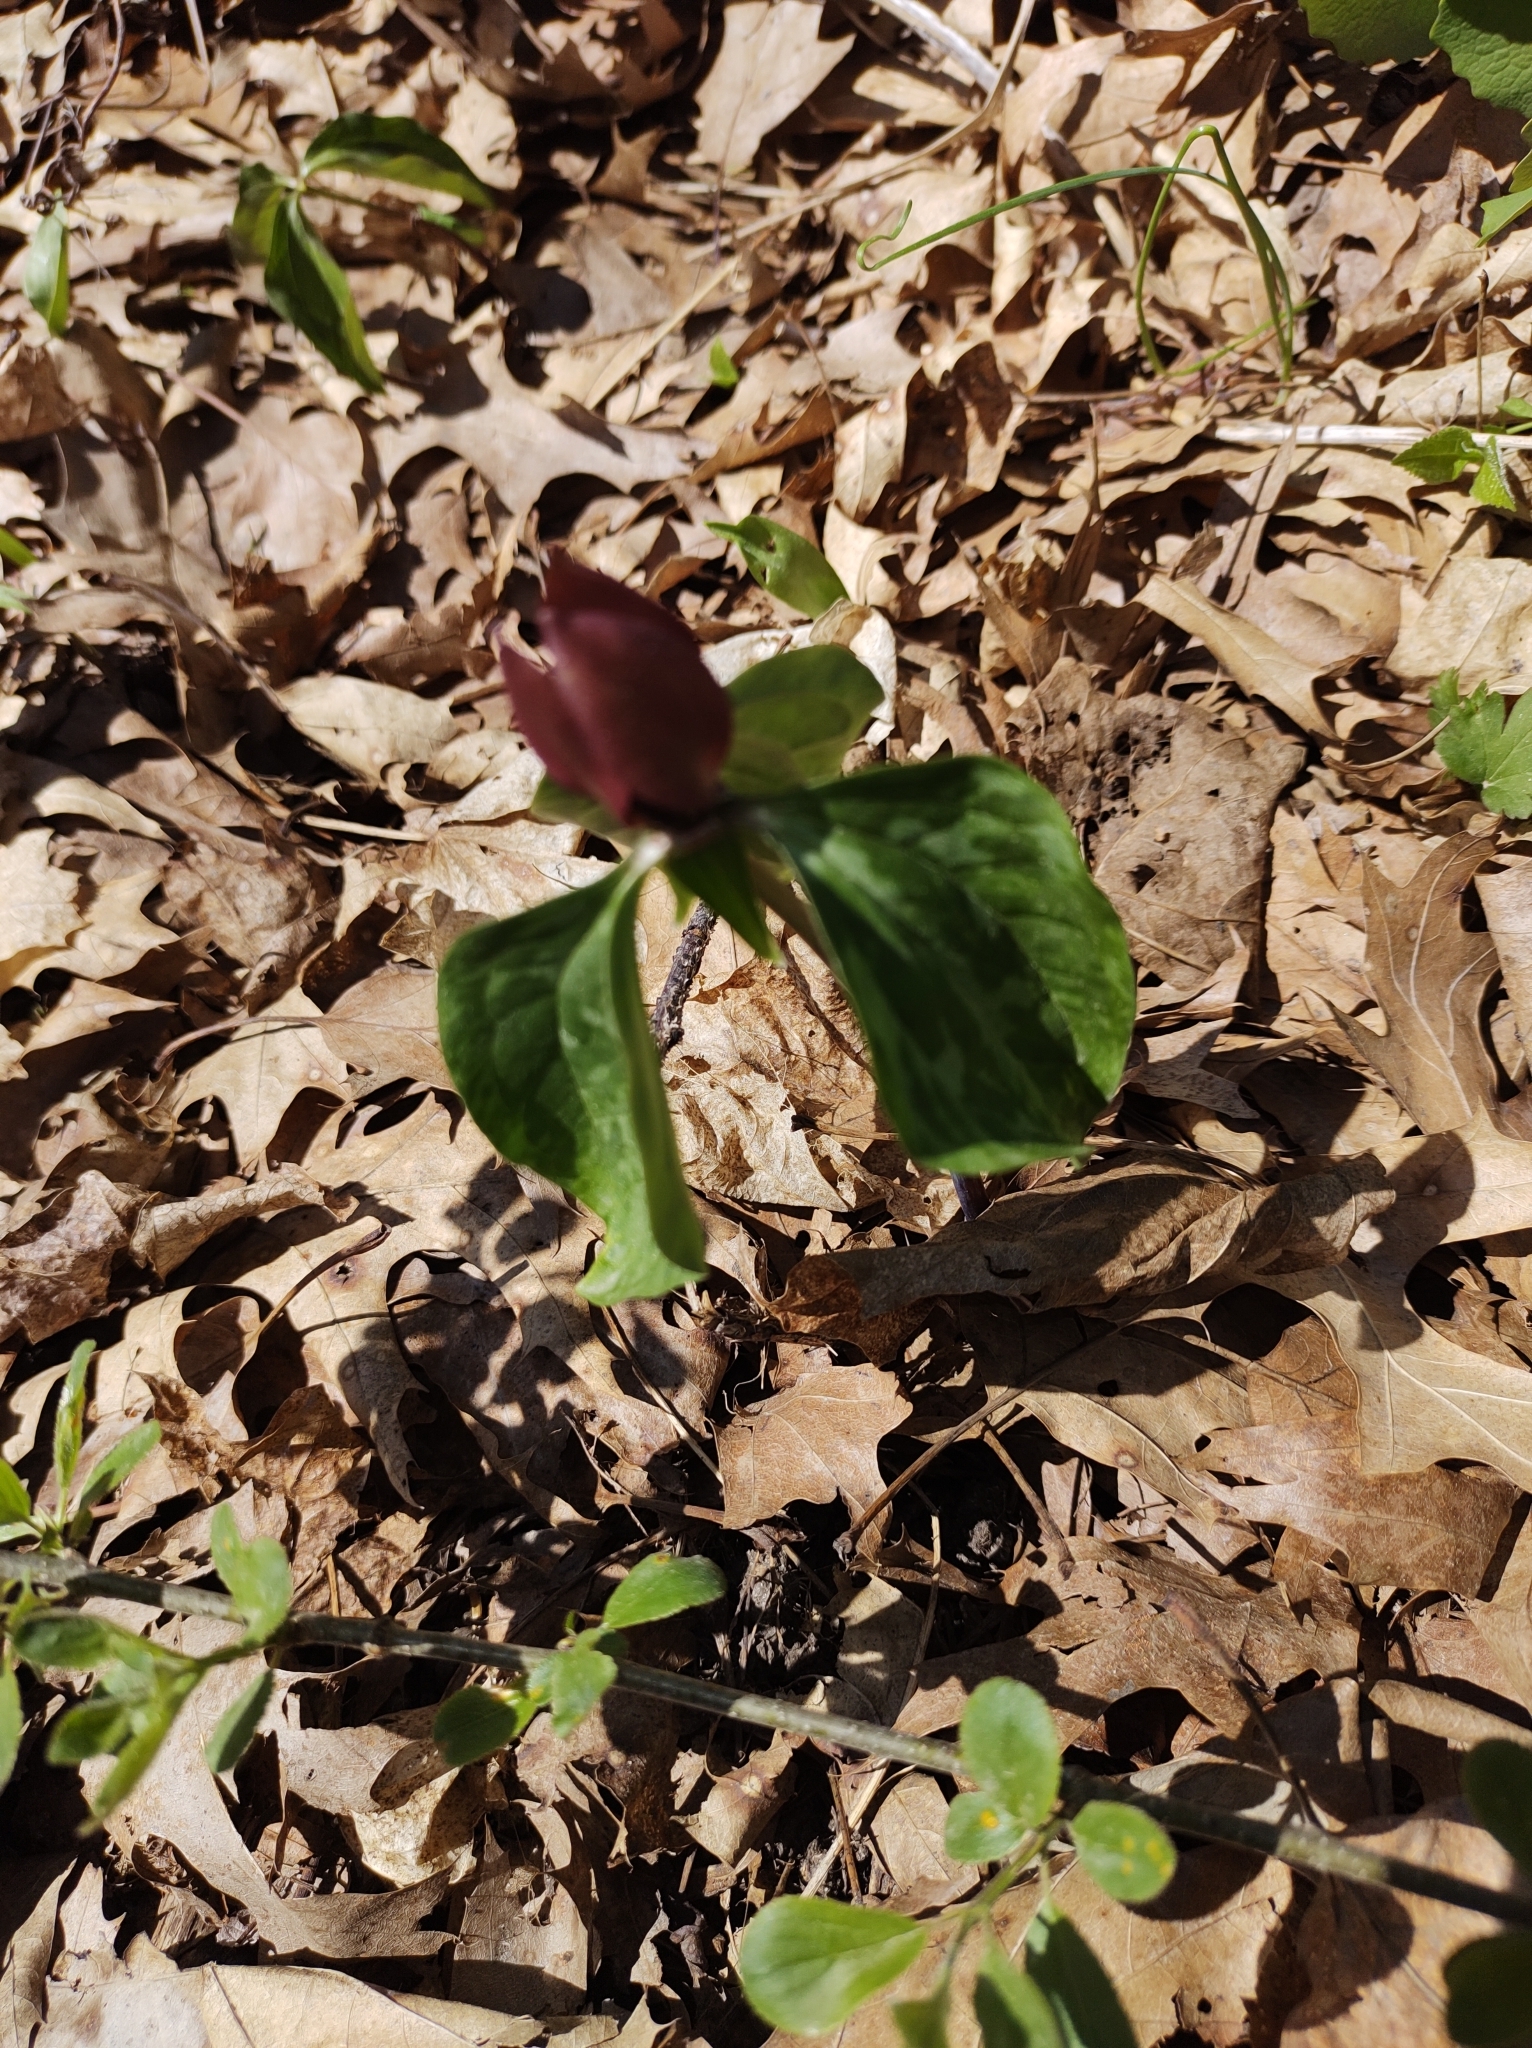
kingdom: Plantae
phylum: Tracheophyta
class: Liliopsida
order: Liliales
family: Melanthiaceae
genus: Trillium
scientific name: Trillium recurvatum
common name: Bloody butcher
